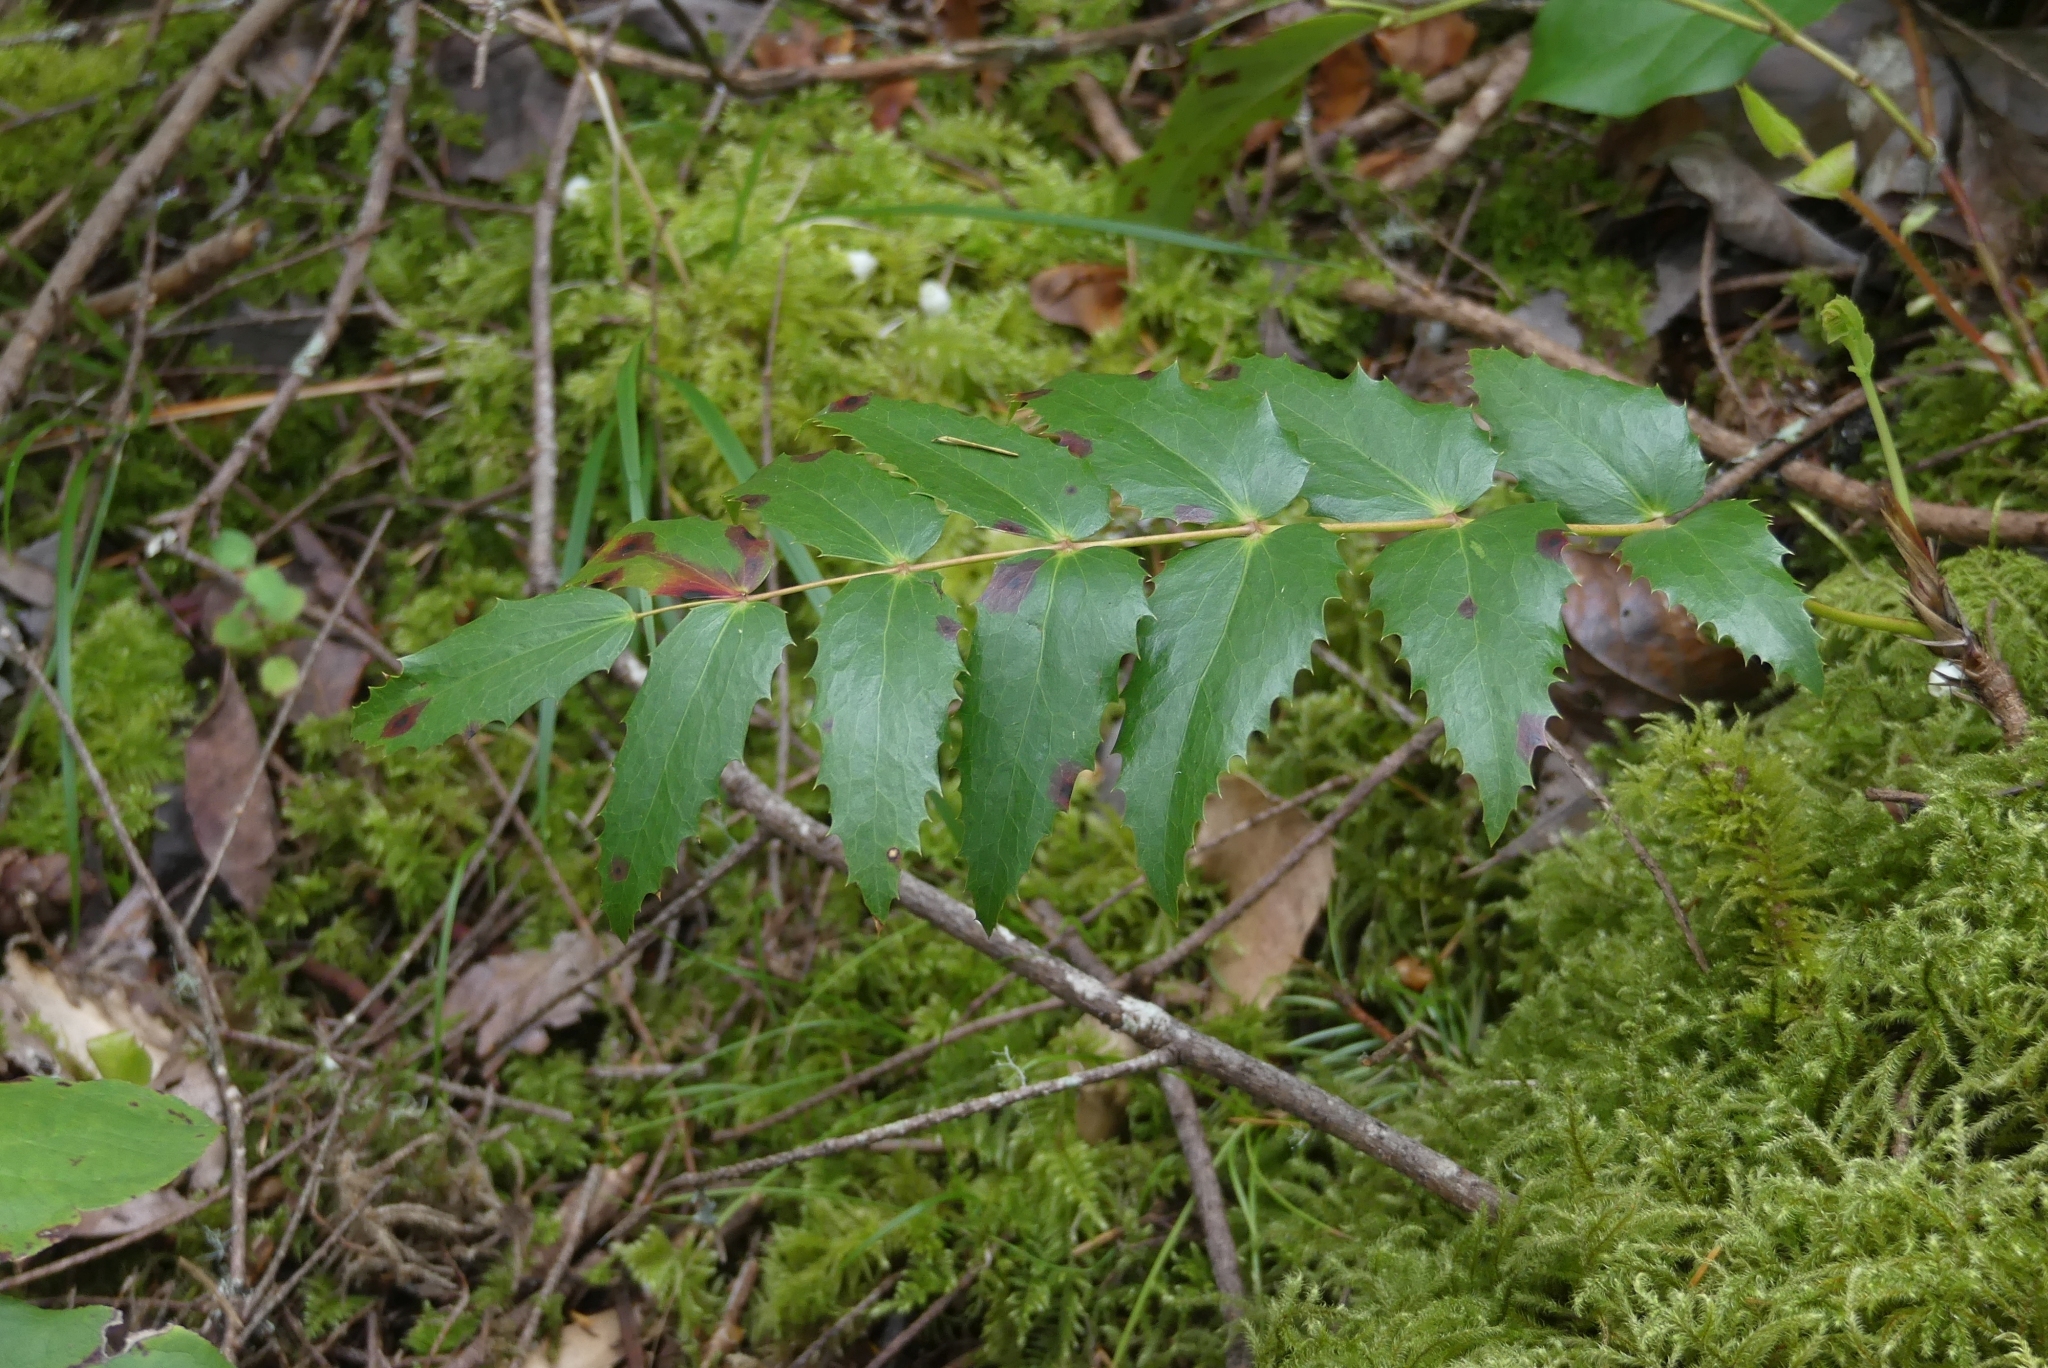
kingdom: Plantae
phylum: Tracheophyta
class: Magnoliopsida
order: Ranunculales
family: Berberidaceae
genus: Mahonia
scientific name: Mahonia nervosa
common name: Cascade oregon-grape
